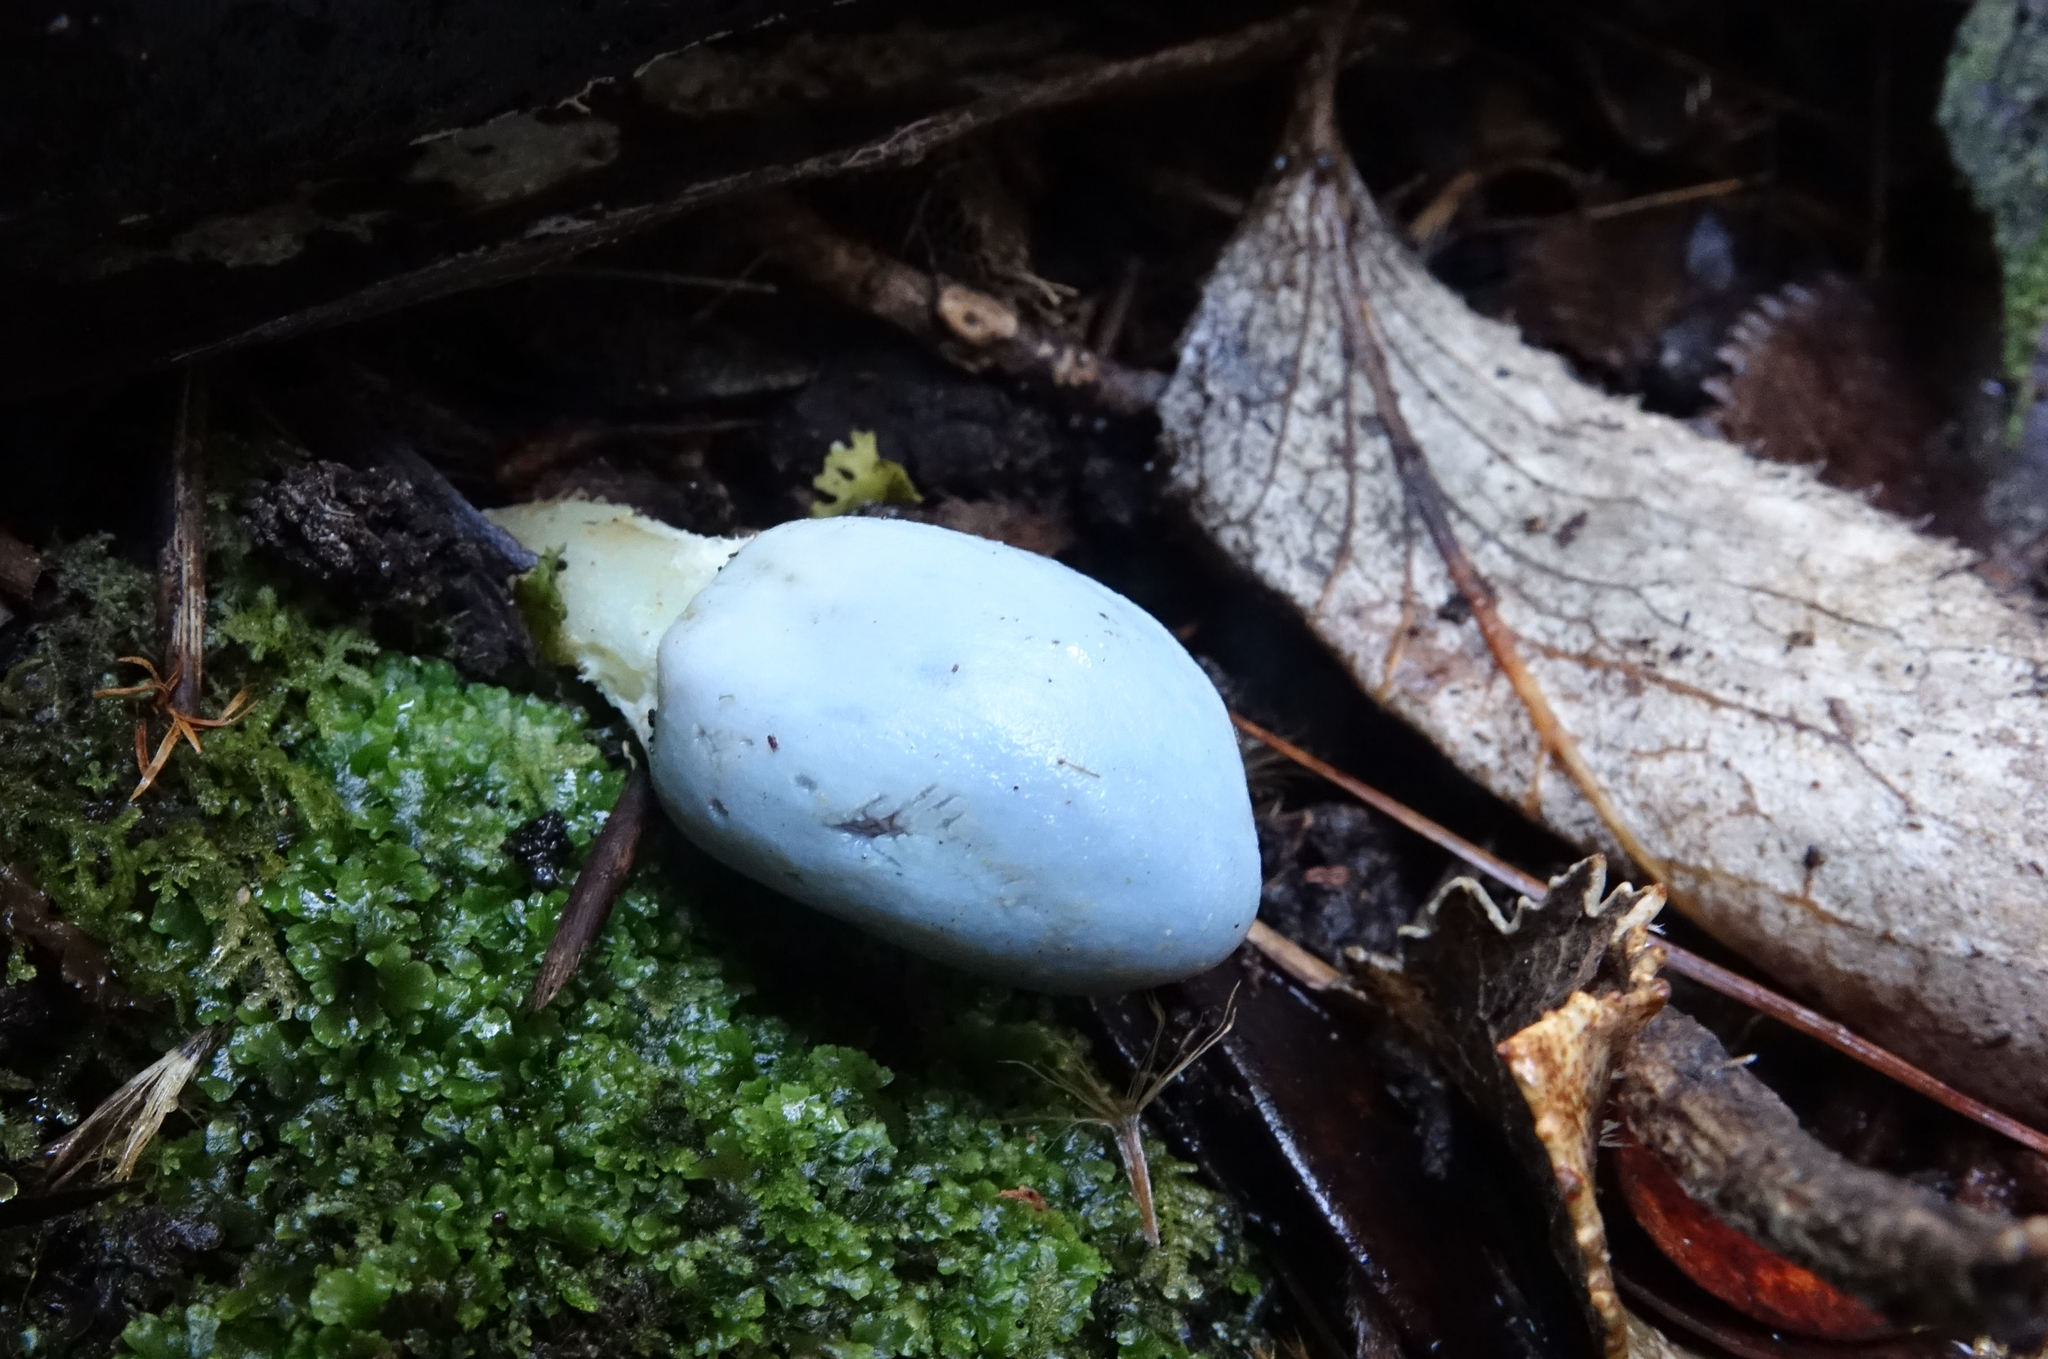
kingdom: Fungi
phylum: Basidiomycota
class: Agaricomycetes
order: Agaricales
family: Agaricaceae
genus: Clavogaster
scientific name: Clavogaster virescens
